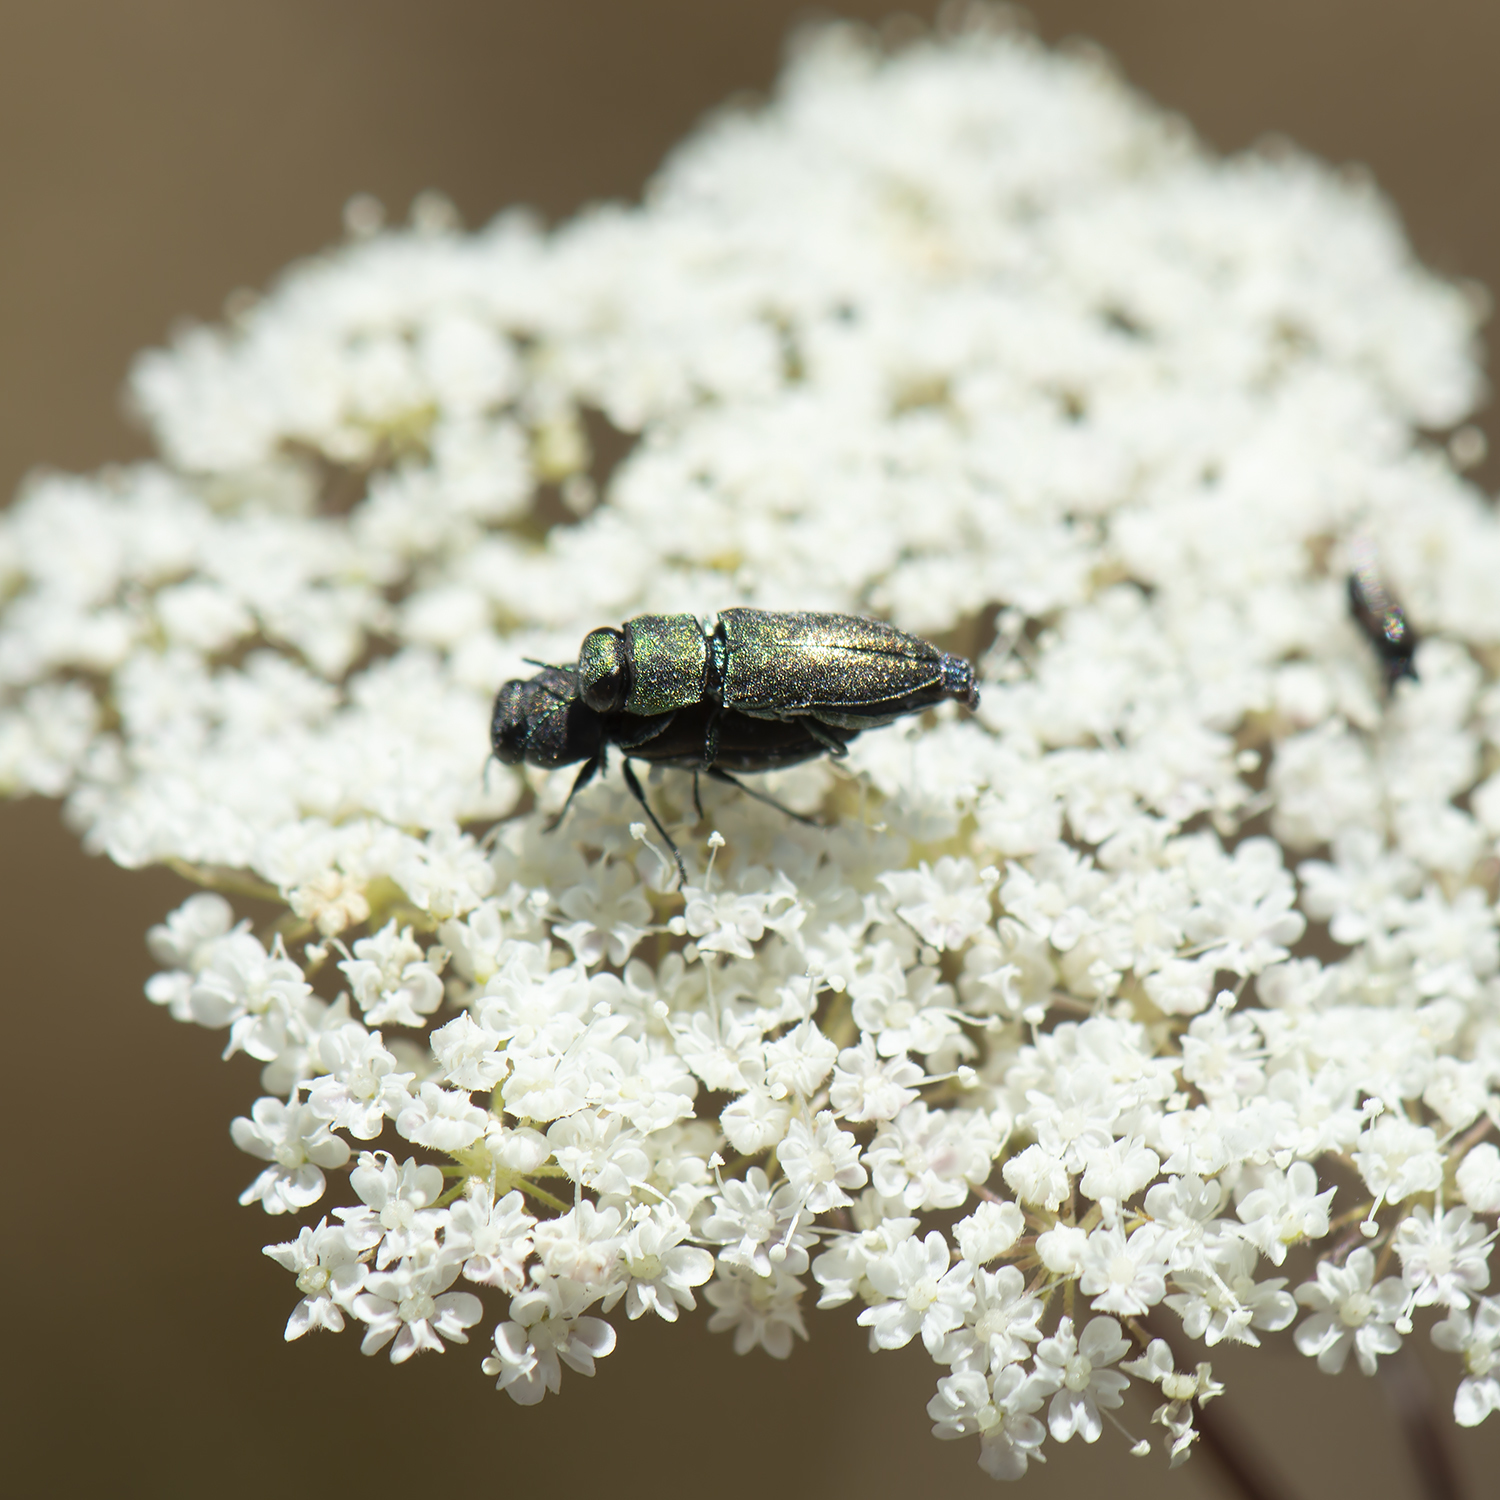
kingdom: Animalia
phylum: Arthropoda
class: Insecta
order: Coleoptera
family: Buprestidae
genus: Anthaxia
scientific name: Anthaxia millefolii
